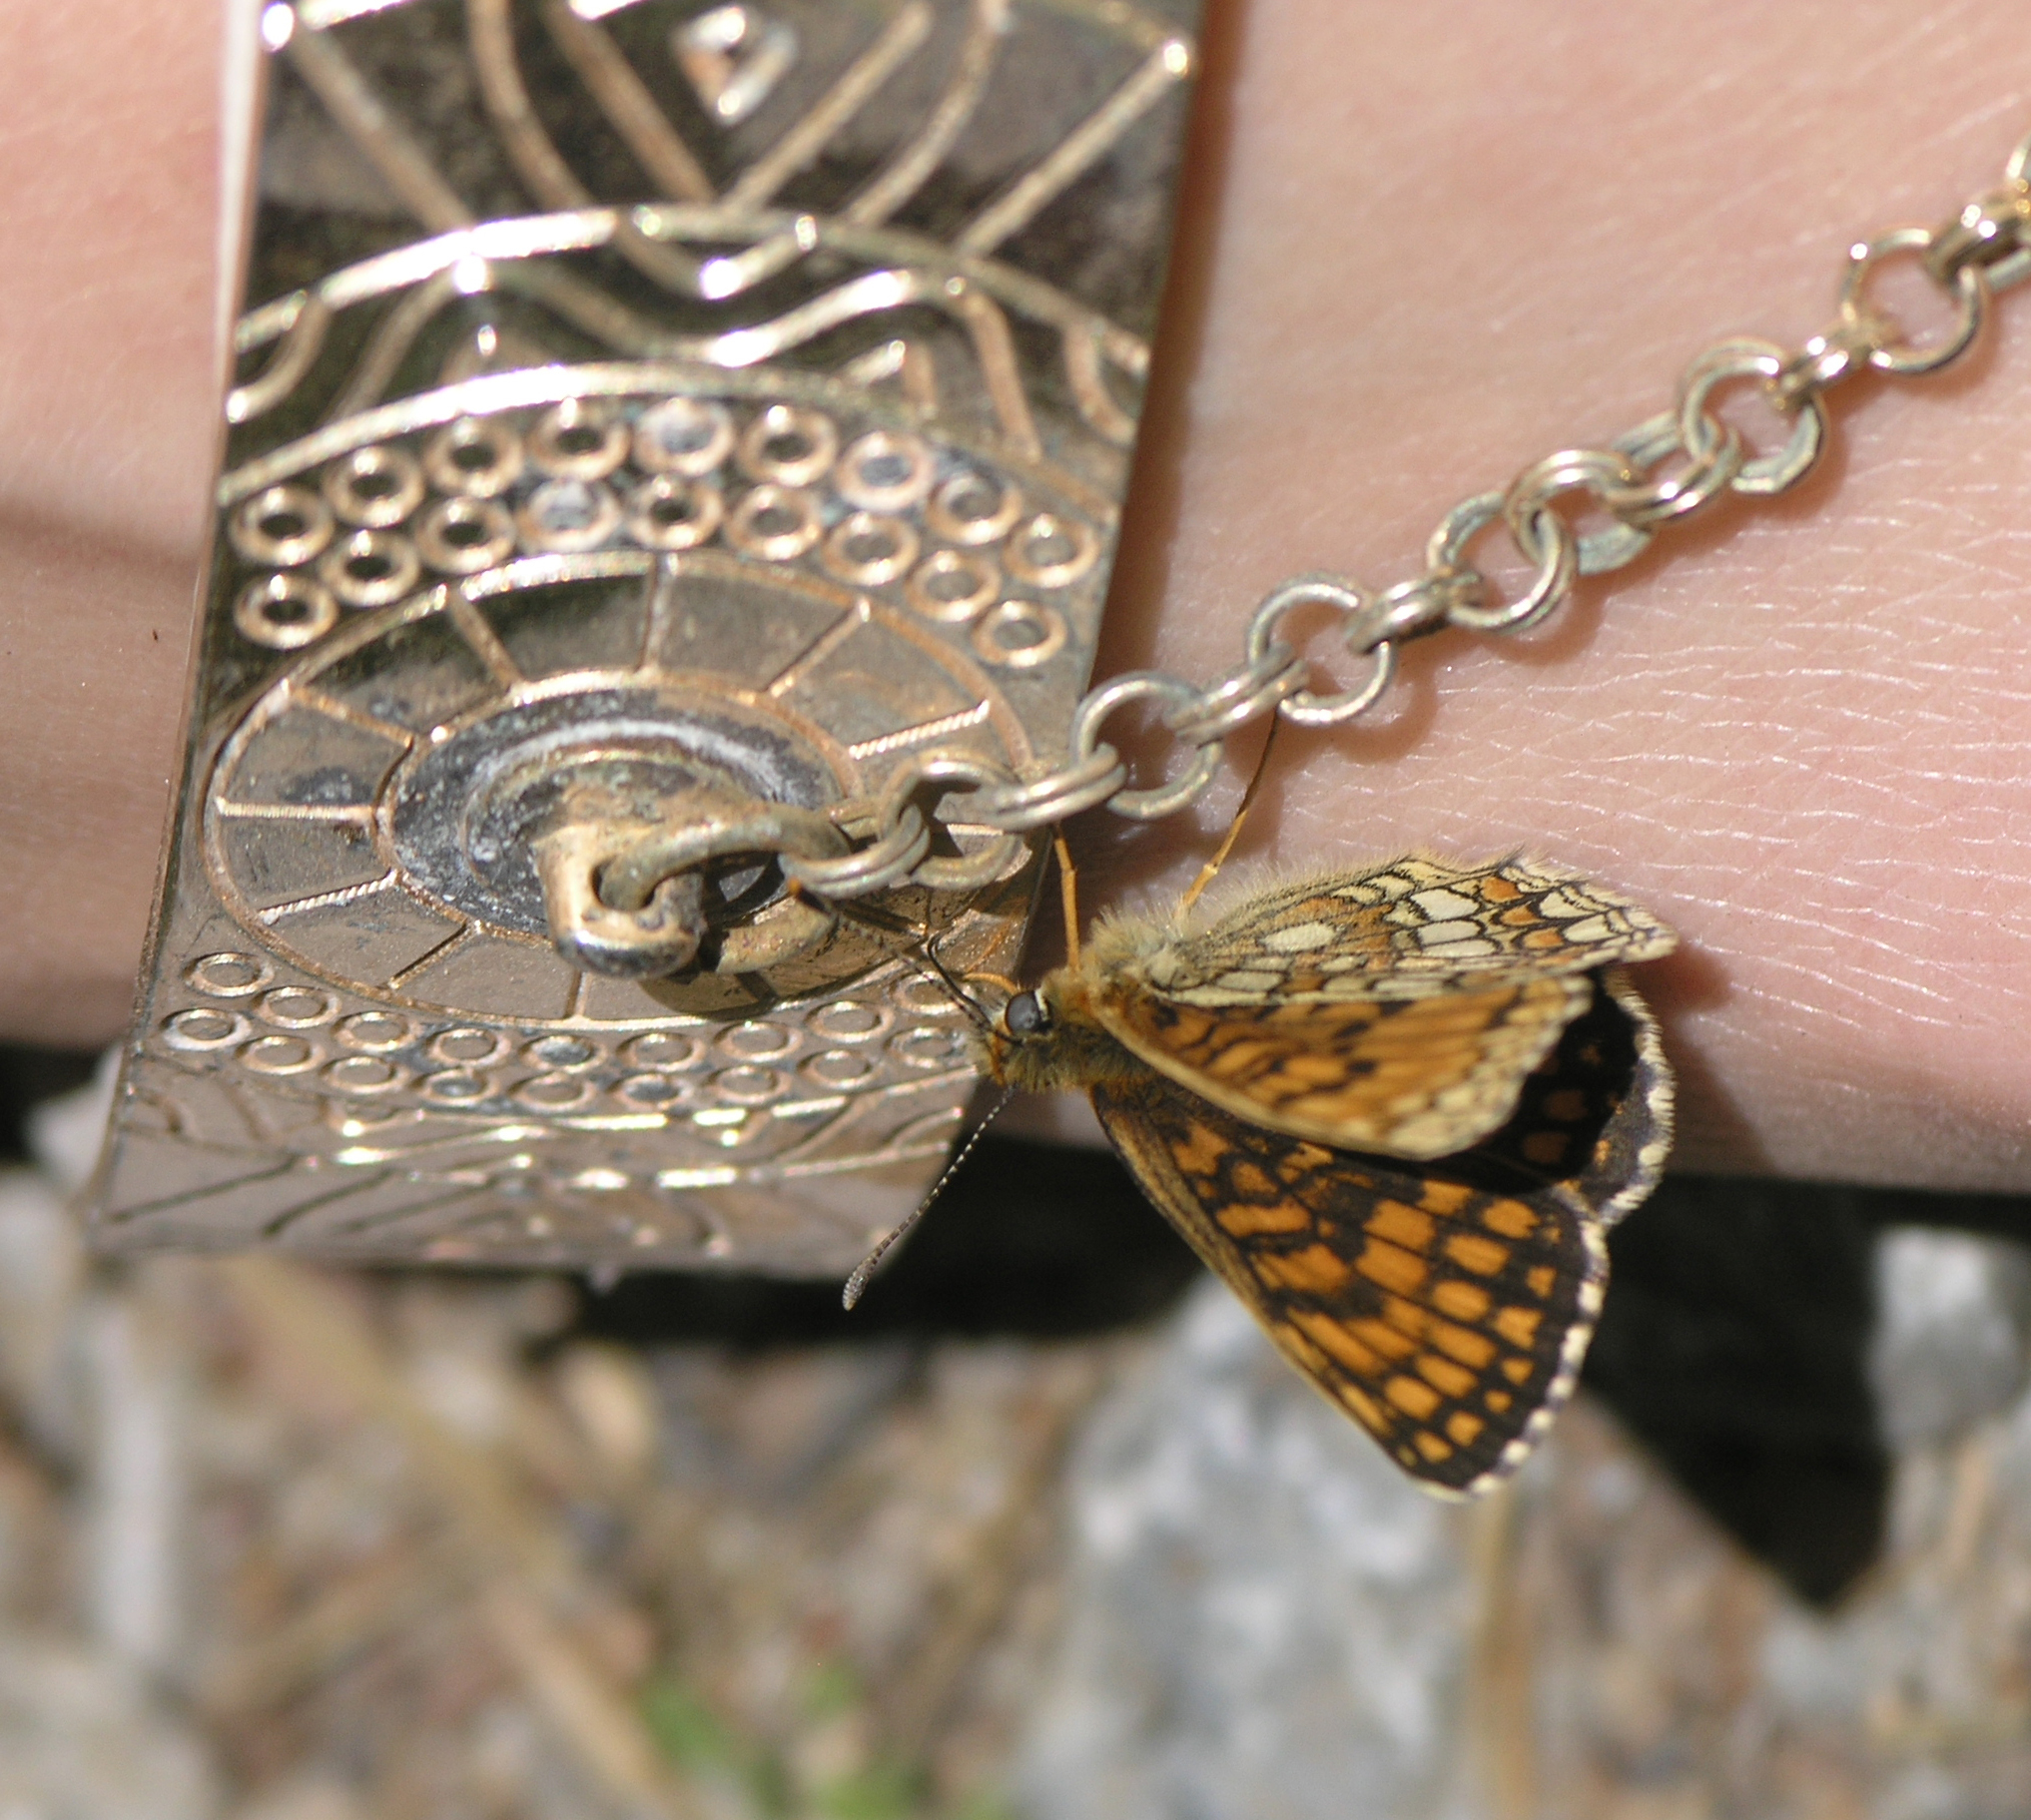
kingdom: Animalia
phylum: Arthropoda
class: Insecta
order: Lepidoptera
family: Nymphalidae
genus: Melitaea
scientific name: Melitaea athalia
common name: Heath fritillary
